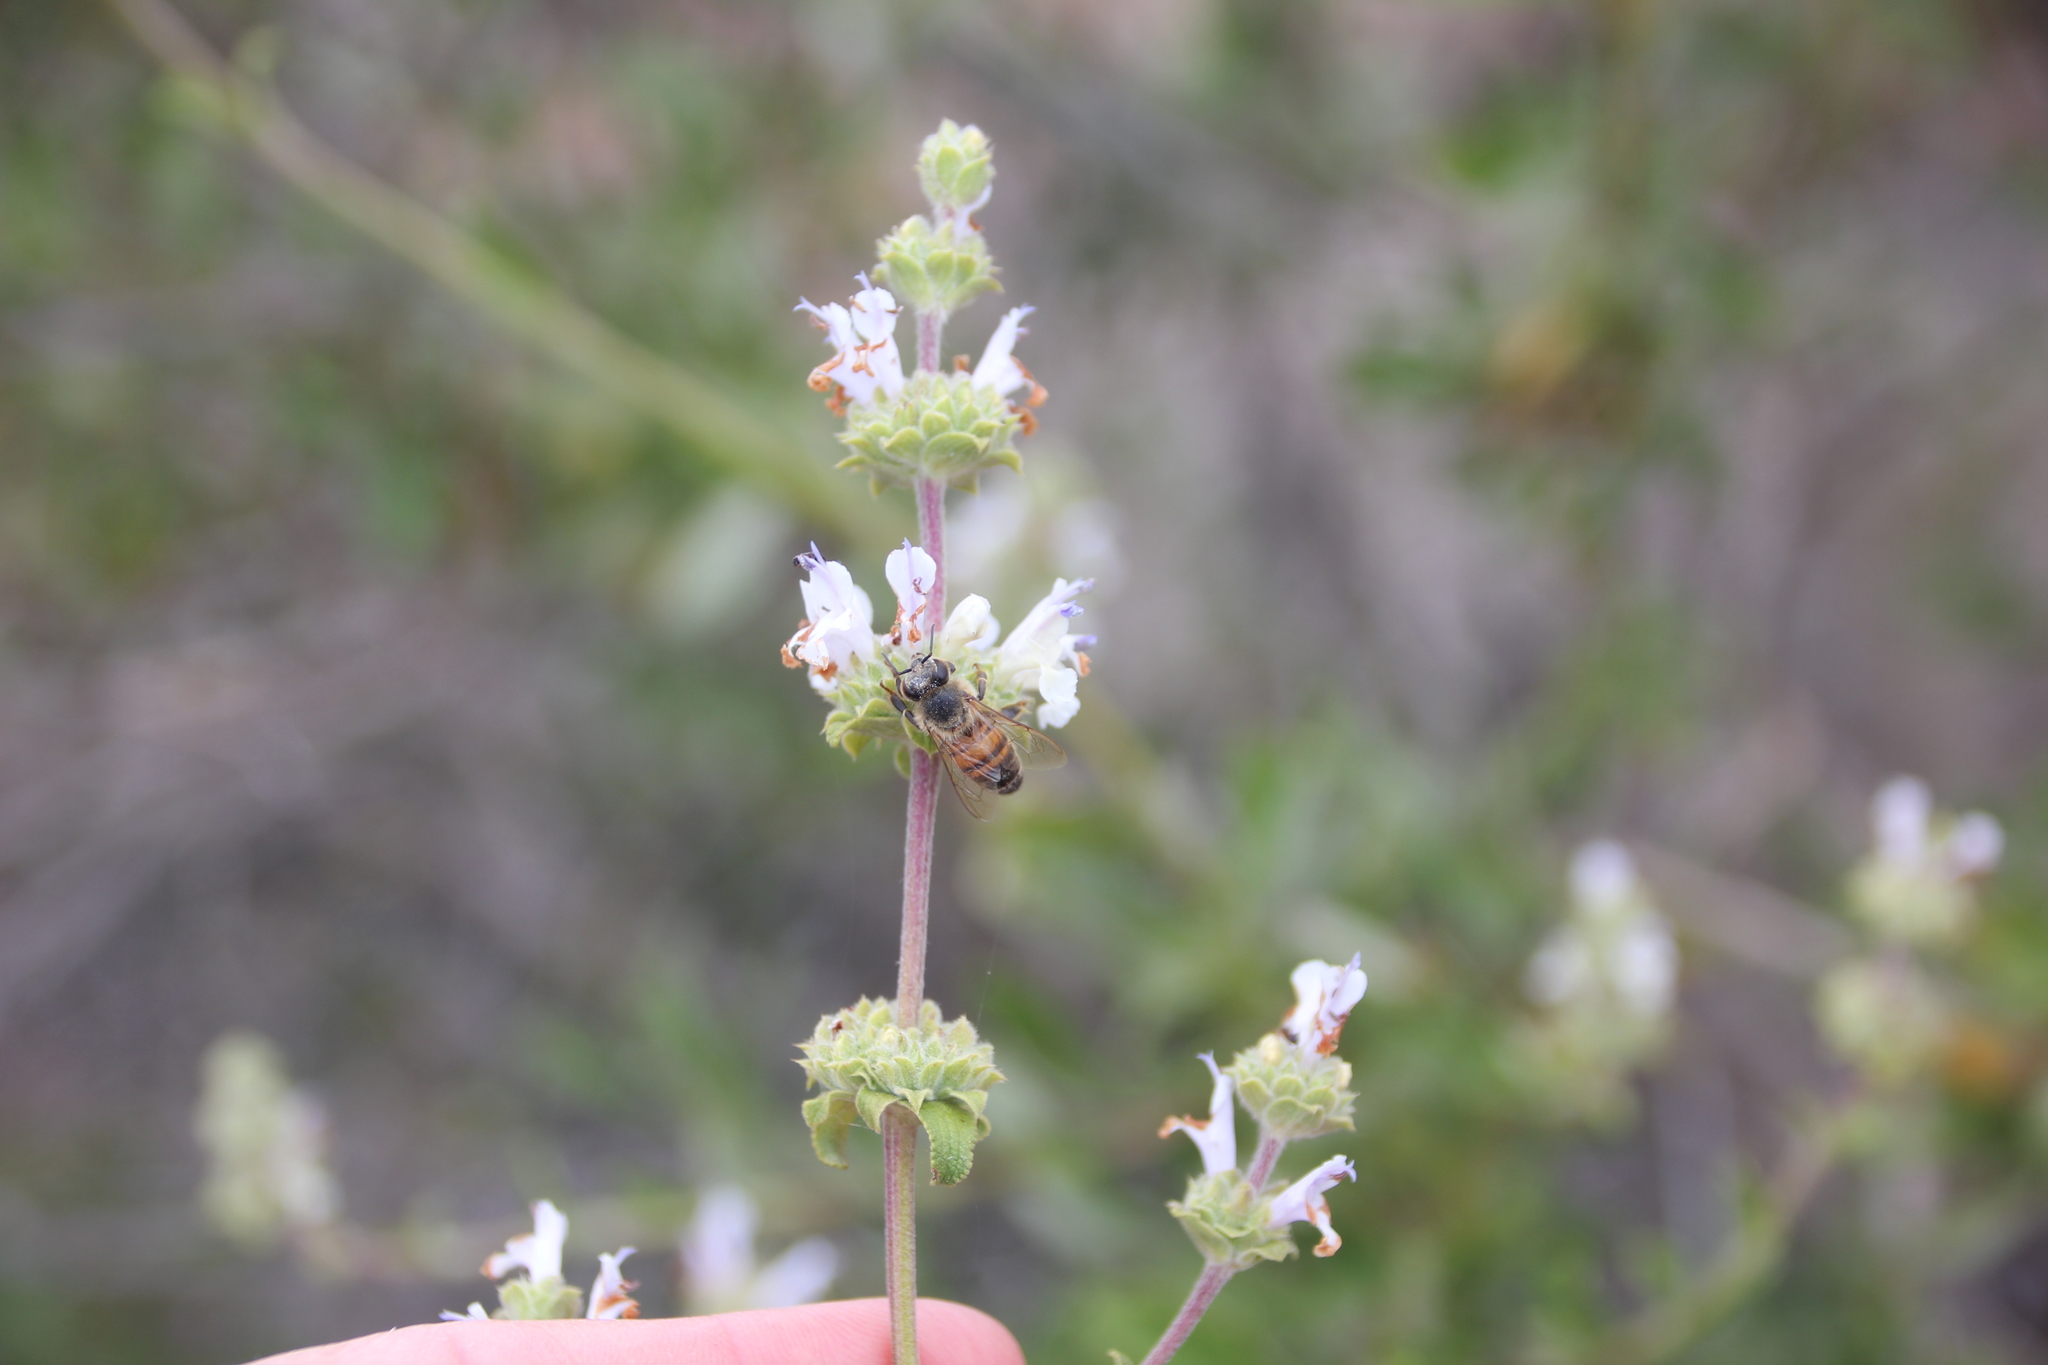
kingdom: Animalia
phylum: Arthropoda
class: Insecta
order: Hymenoptera
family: Apidae
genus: Apis
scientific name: Apis mellifera
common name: Honey bee
